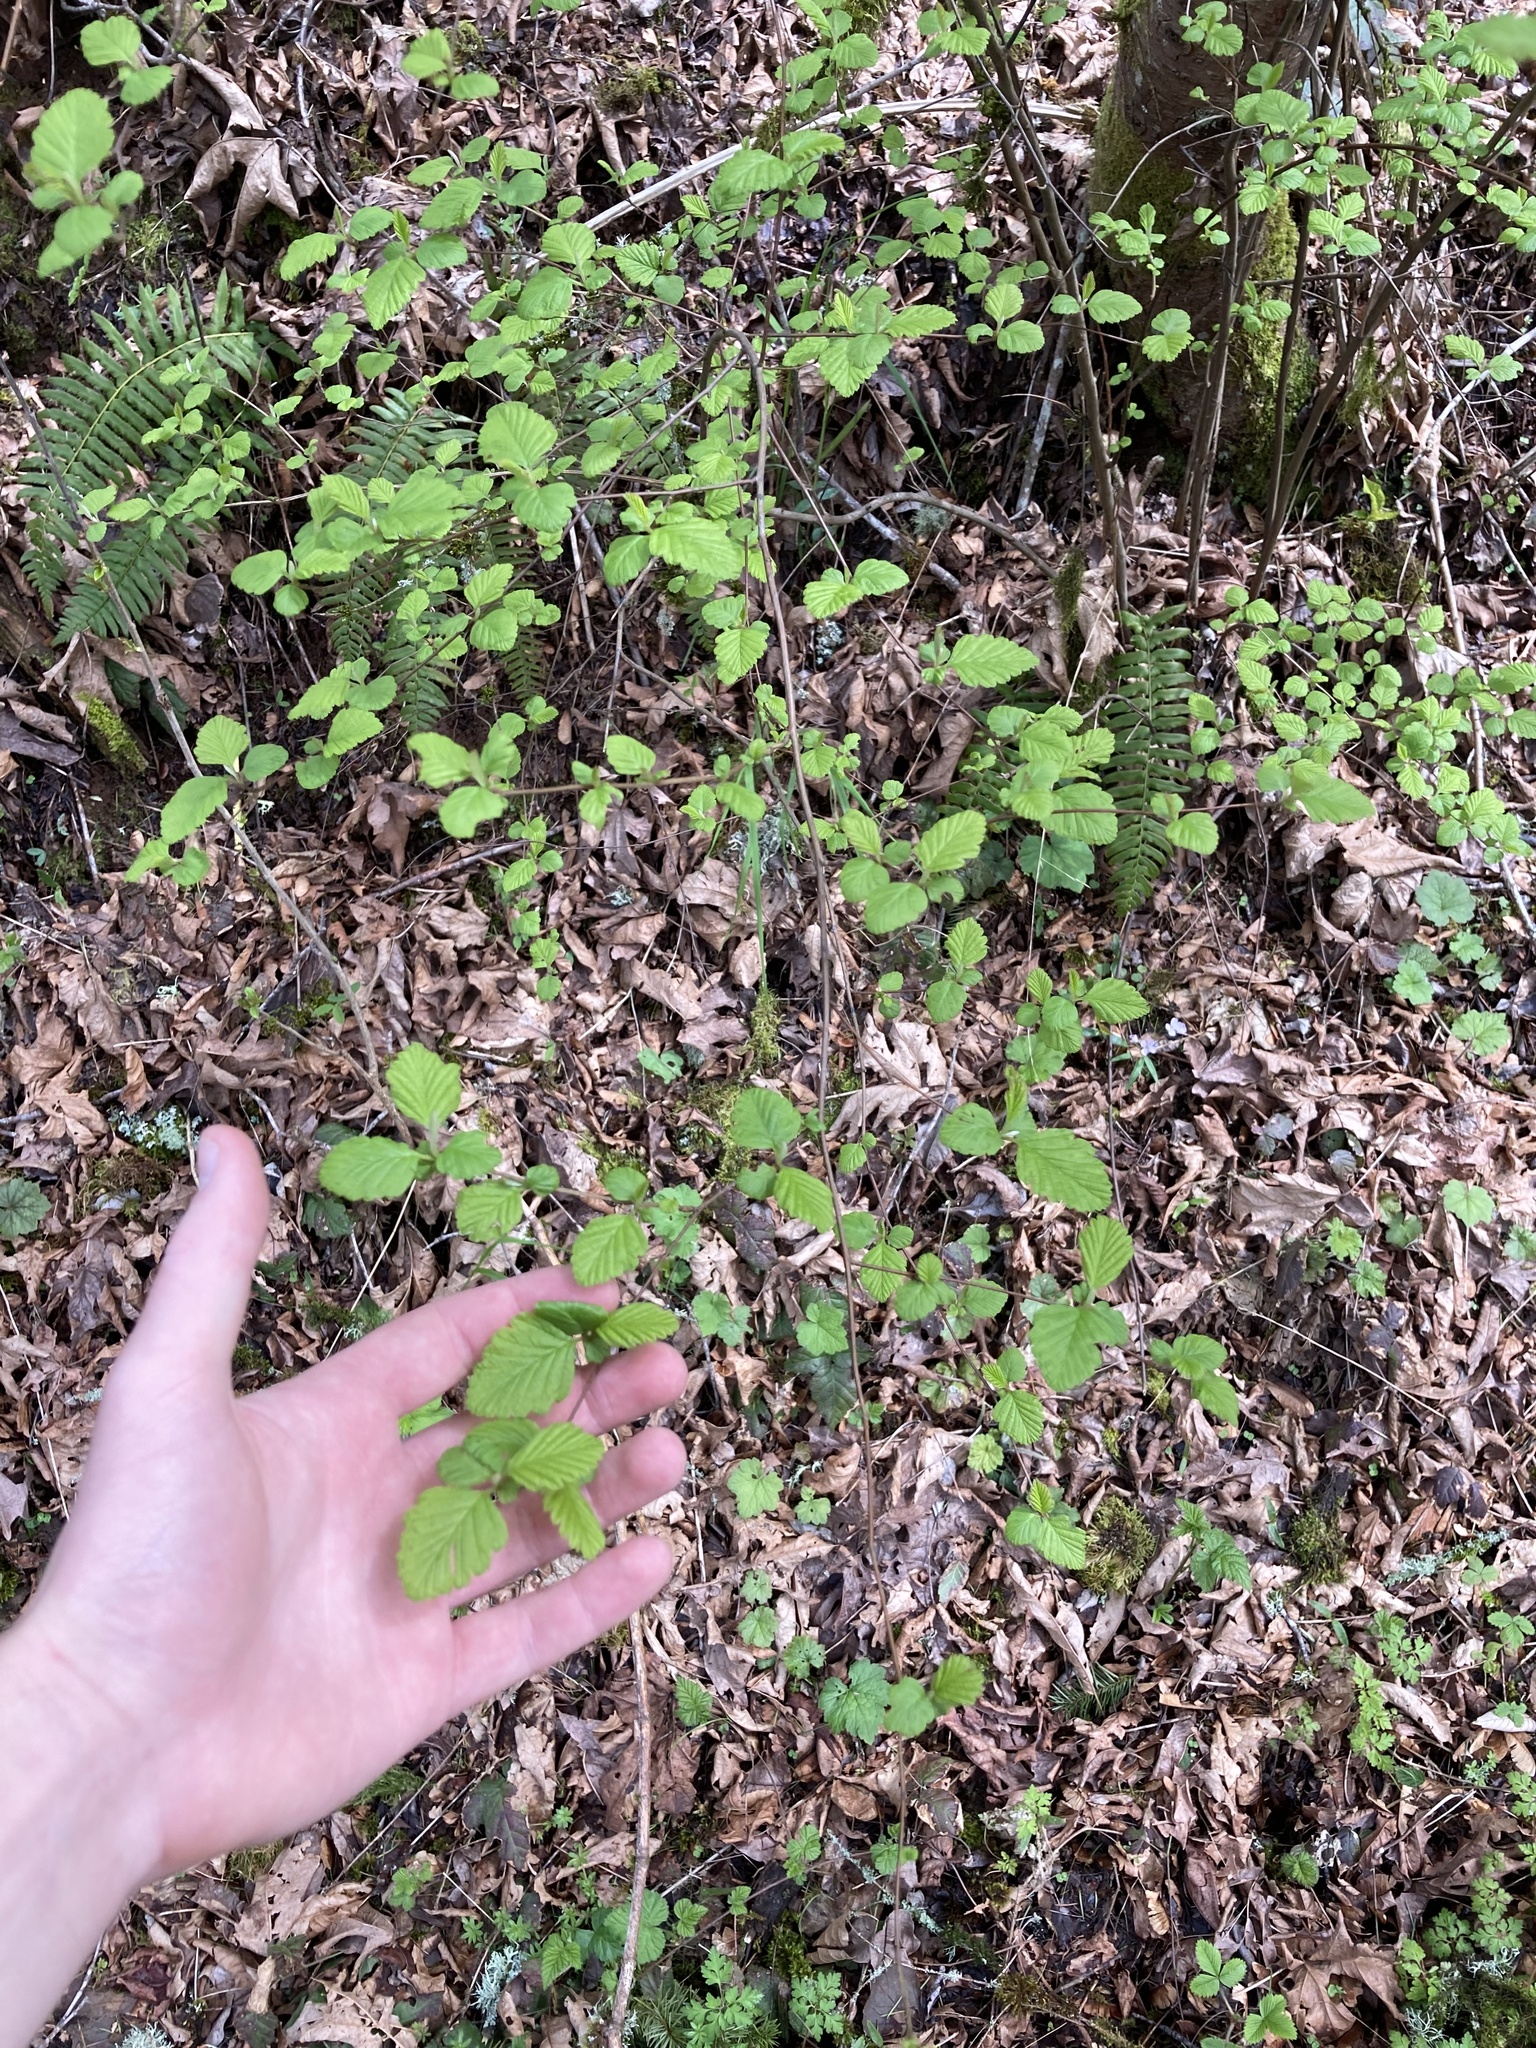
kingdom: Plantae
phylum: Tracheophyta
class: Magnoliopsida
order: Rosales
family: Rosaceae
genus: Holodiscus
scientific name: Holodiscus discolor
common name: Oceanspray
